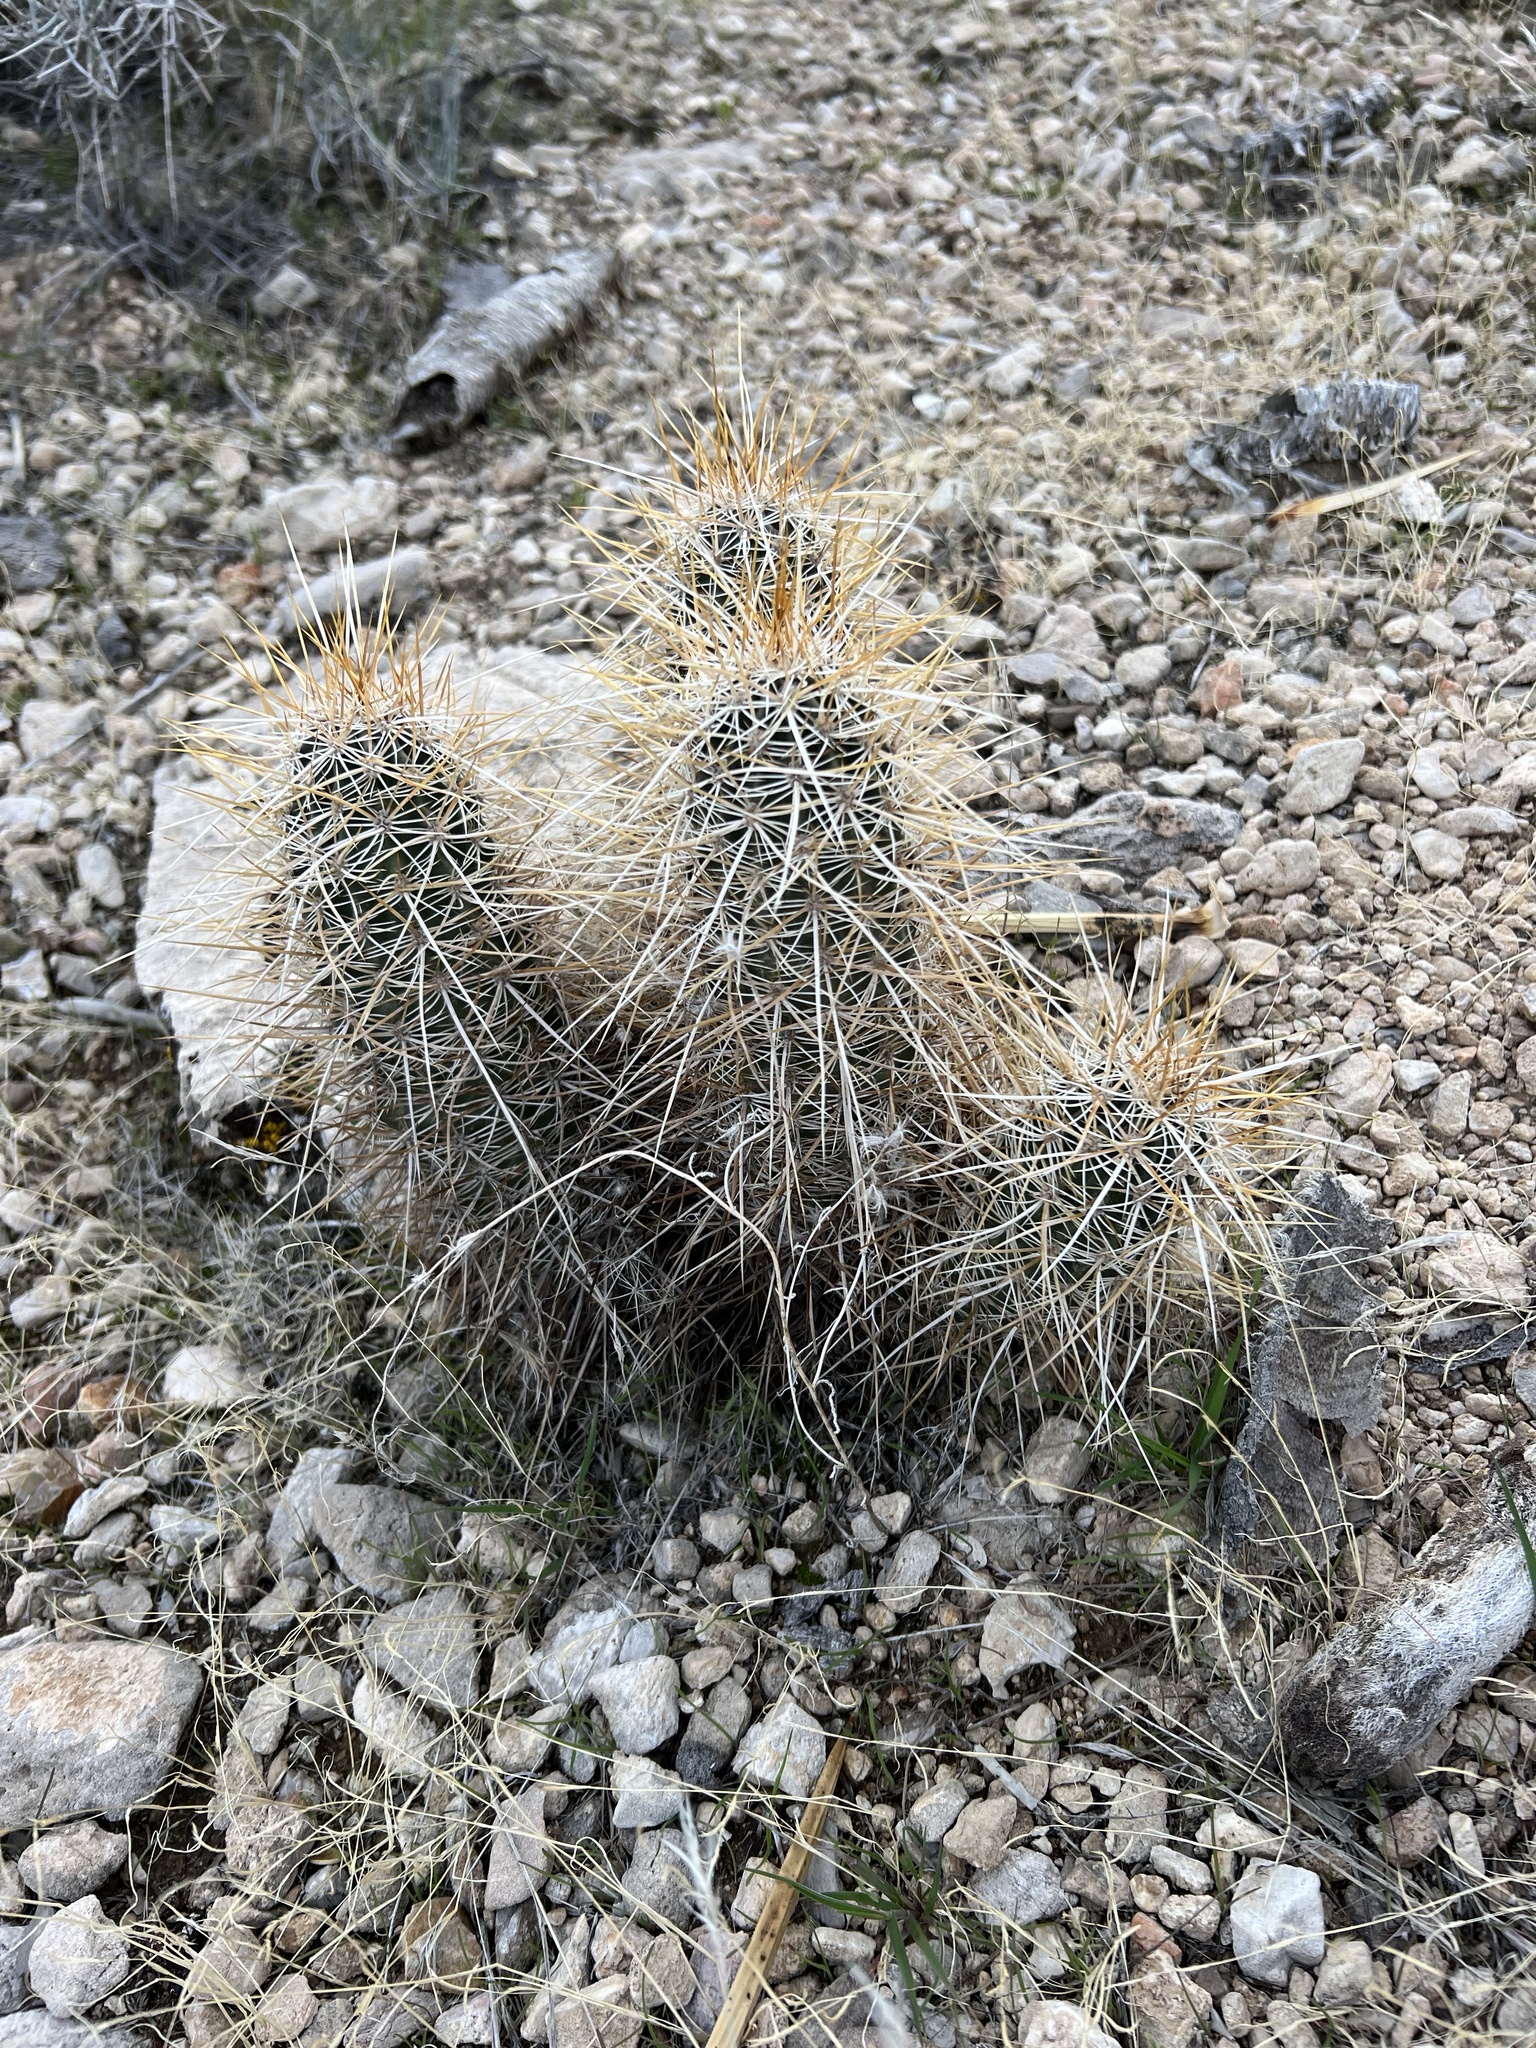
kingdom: Plantae
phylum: Tracheophyta
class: Magnoliopsida
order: Caryophyllales
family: Cactaceae
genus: Echinocereus
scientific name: Echinocereus engelmannii
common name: Engelmann's hedgehog cactus
